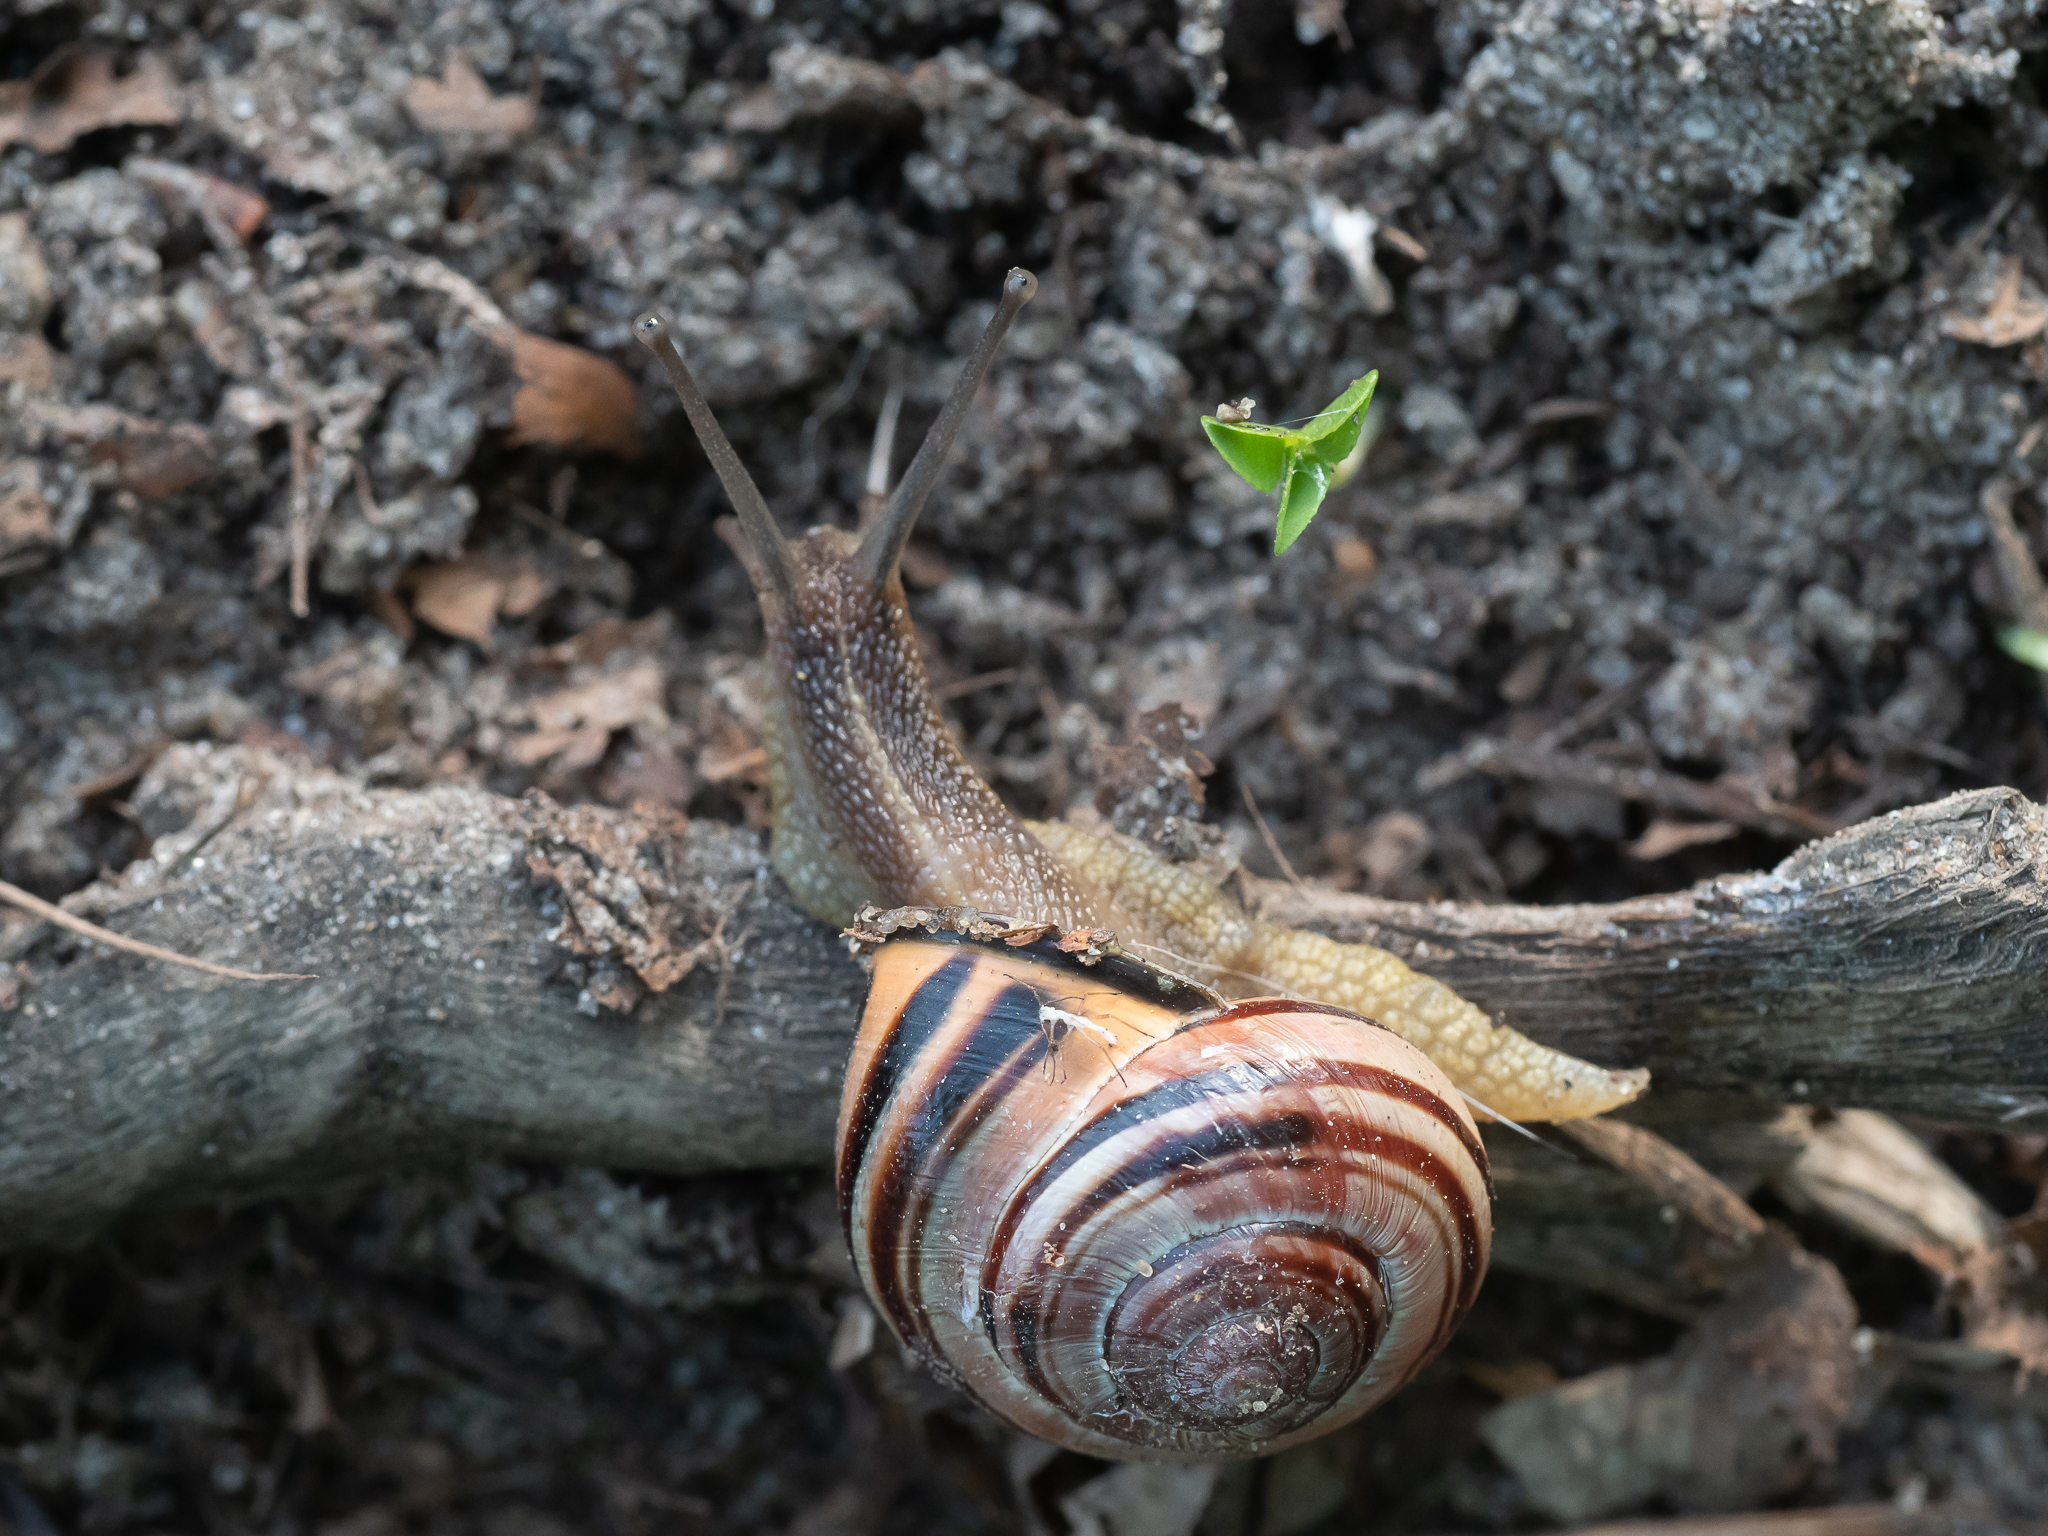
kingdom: Animalia
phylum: Mollusca
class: Gastropoda
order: Stylommatophora
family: Helicidae
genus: Cepaea
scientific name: Cepaea nemoralis
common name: Grovesnail
